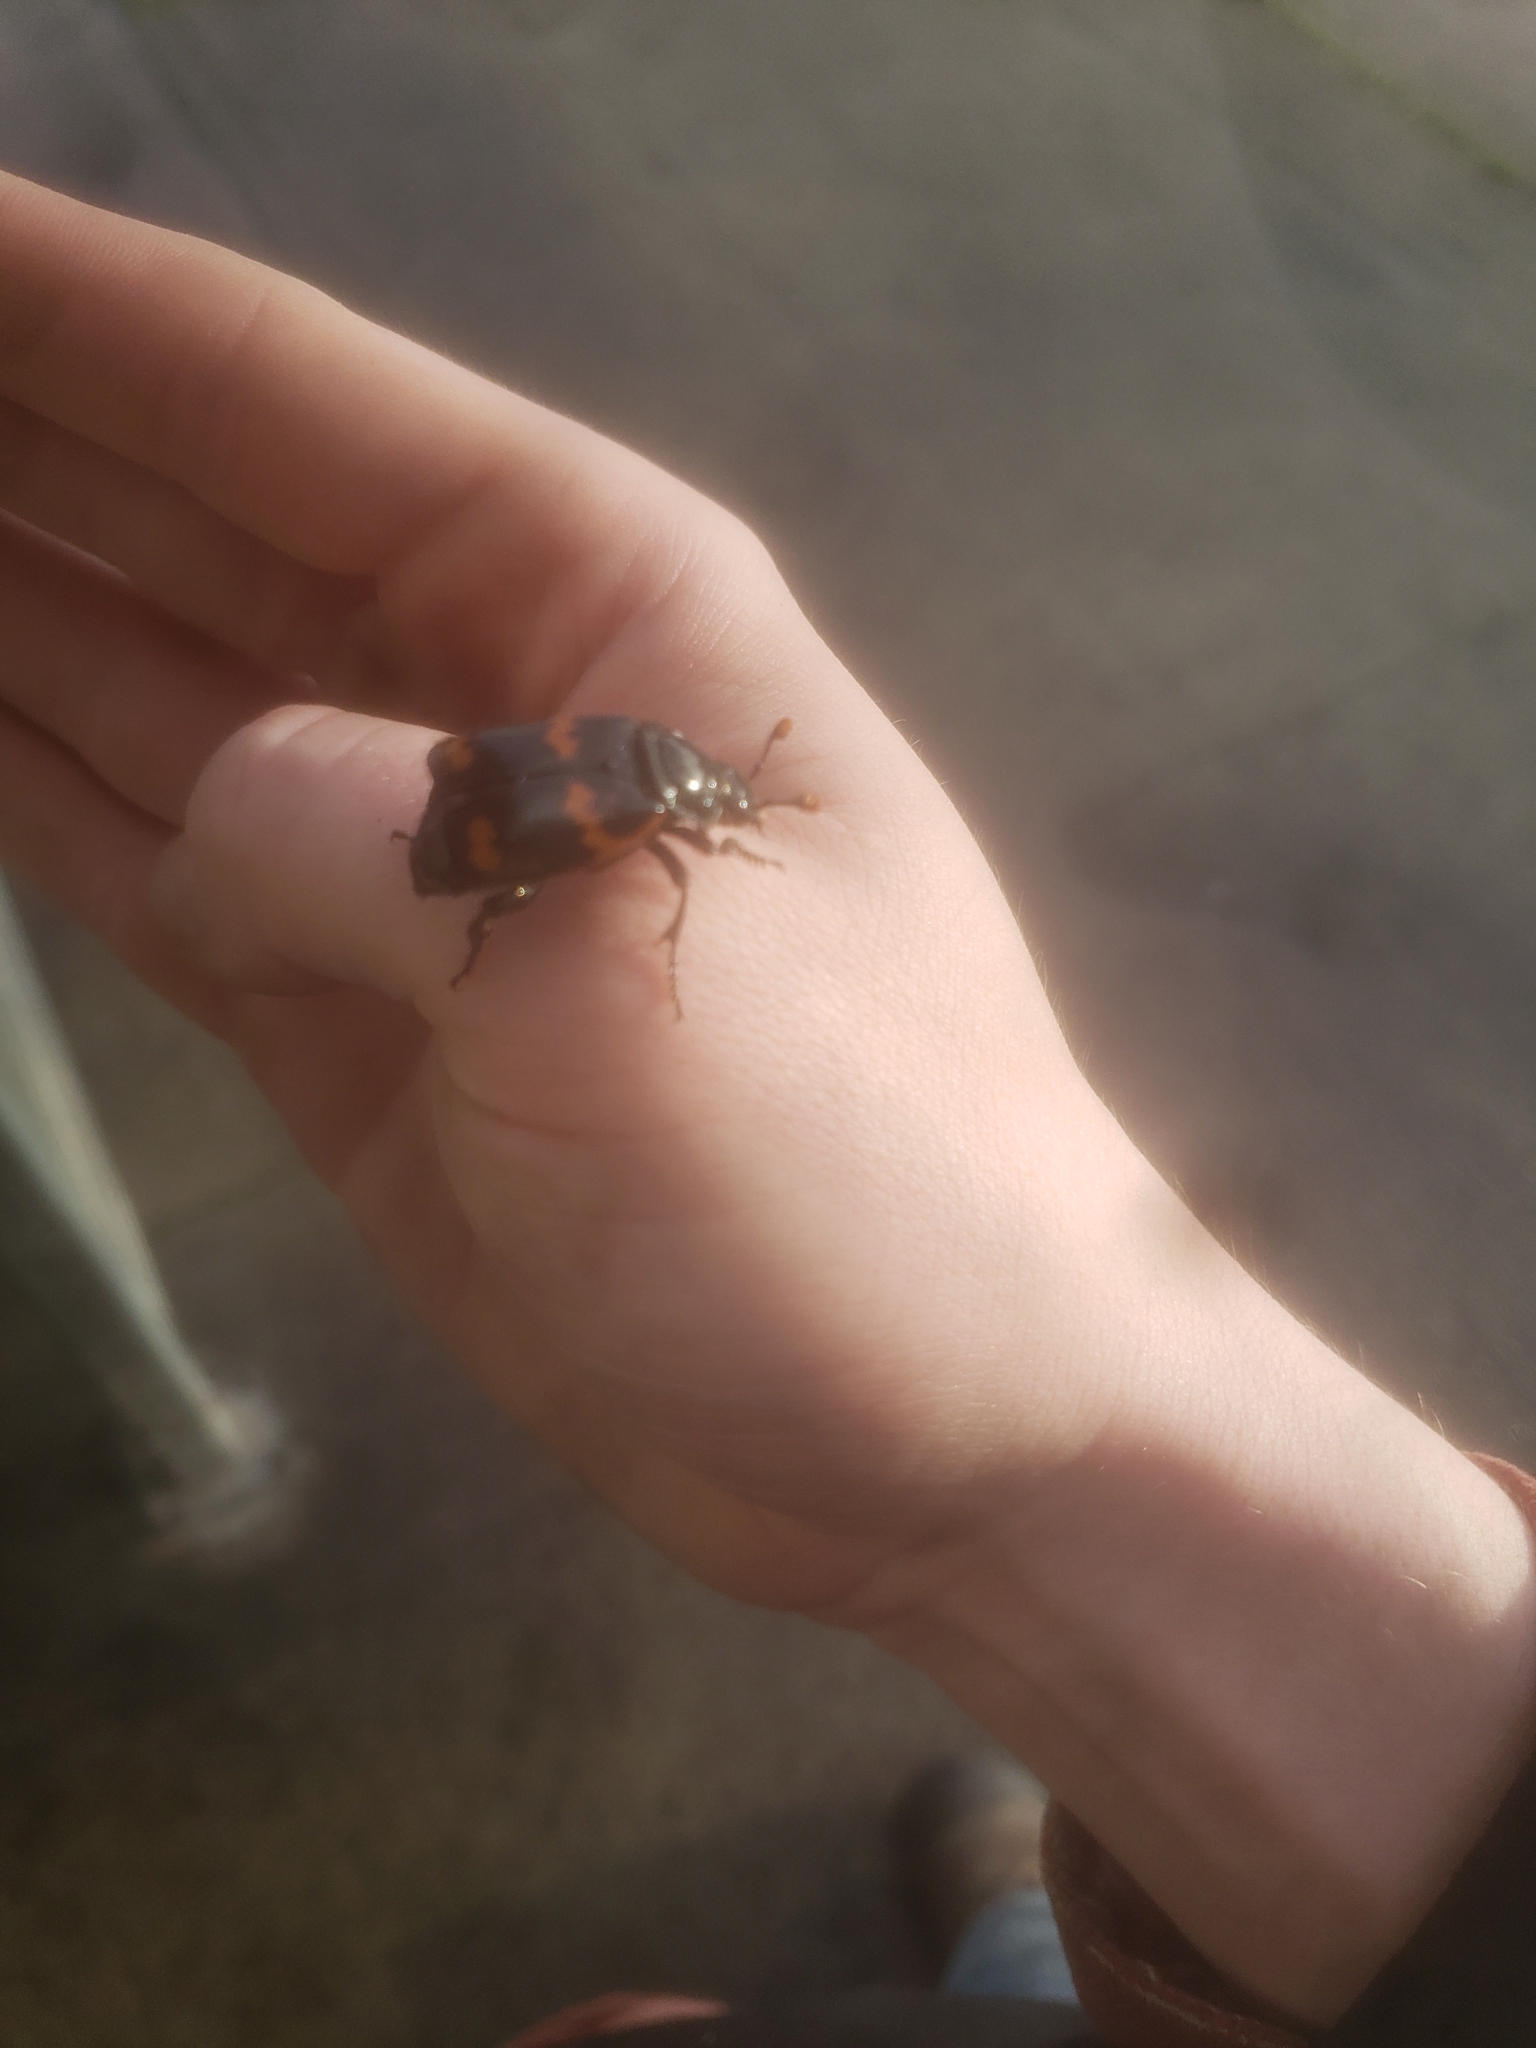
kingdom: Animalia
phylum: Arthropoda
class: Insecta
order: Coleoptera
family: Staphylinidae
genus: Nicrophorus
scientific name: Nicrophorus sayi
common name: Say's burying beetle
